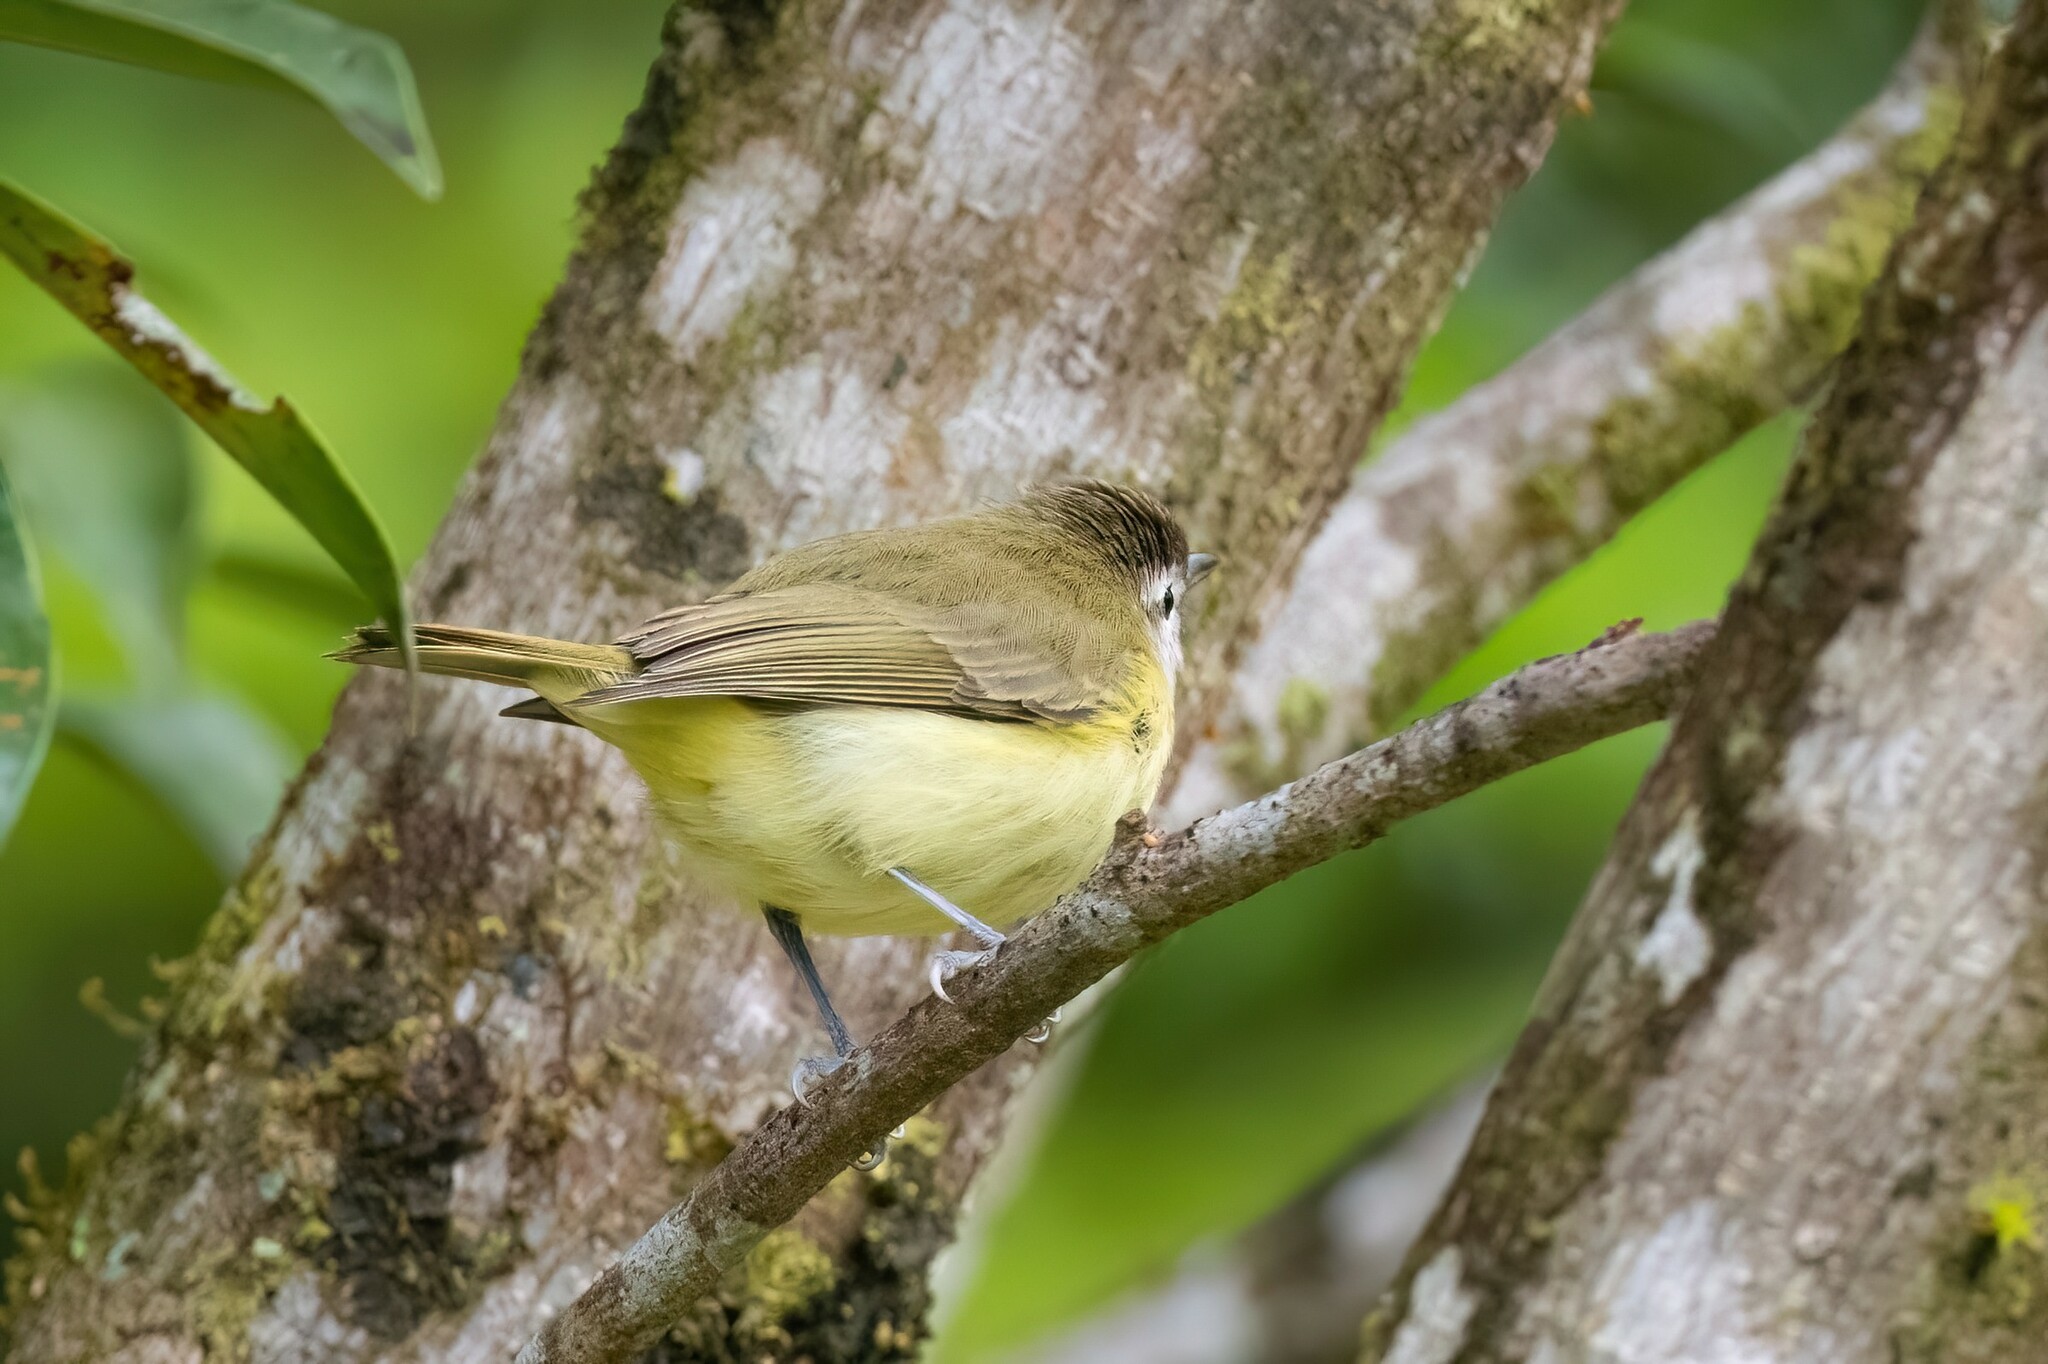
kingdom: Animalia
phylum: Chordata
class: Aves
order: Passeriformes
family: Vireonidae
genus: Vireo
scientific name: Vireo leucophrys
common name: Brown-capped vireo
